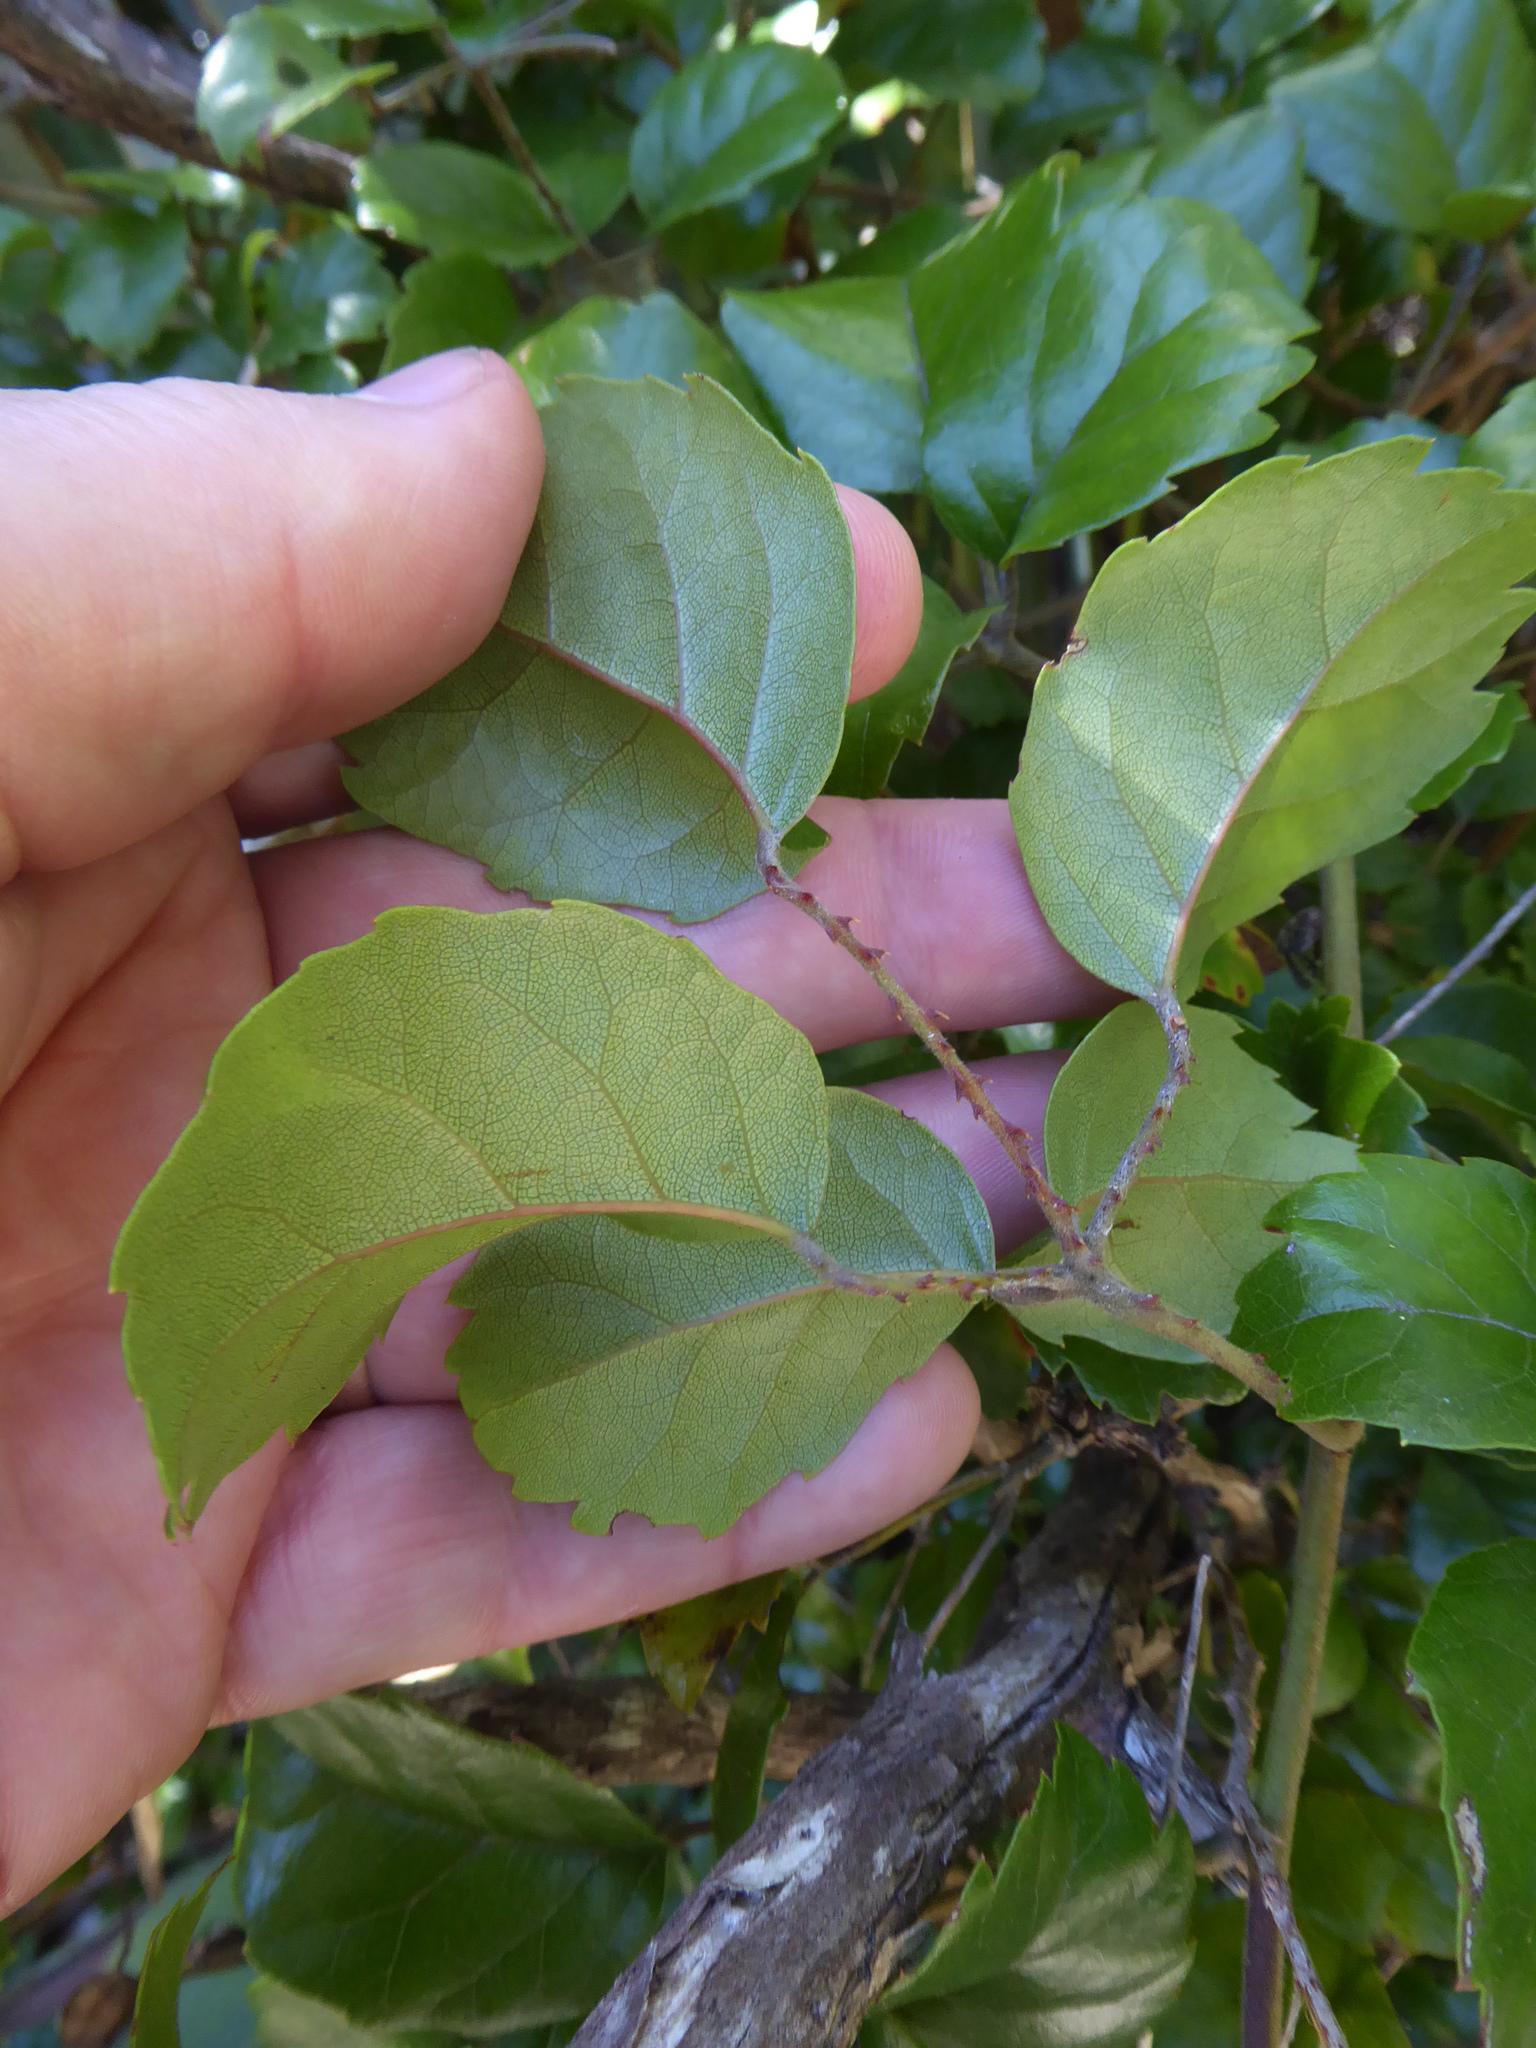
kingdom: Plantae
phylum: Tracheophyta
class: Magnoliopsida
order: Rosales
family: Rosaceae
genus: Rubus
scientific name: Rubus australis
